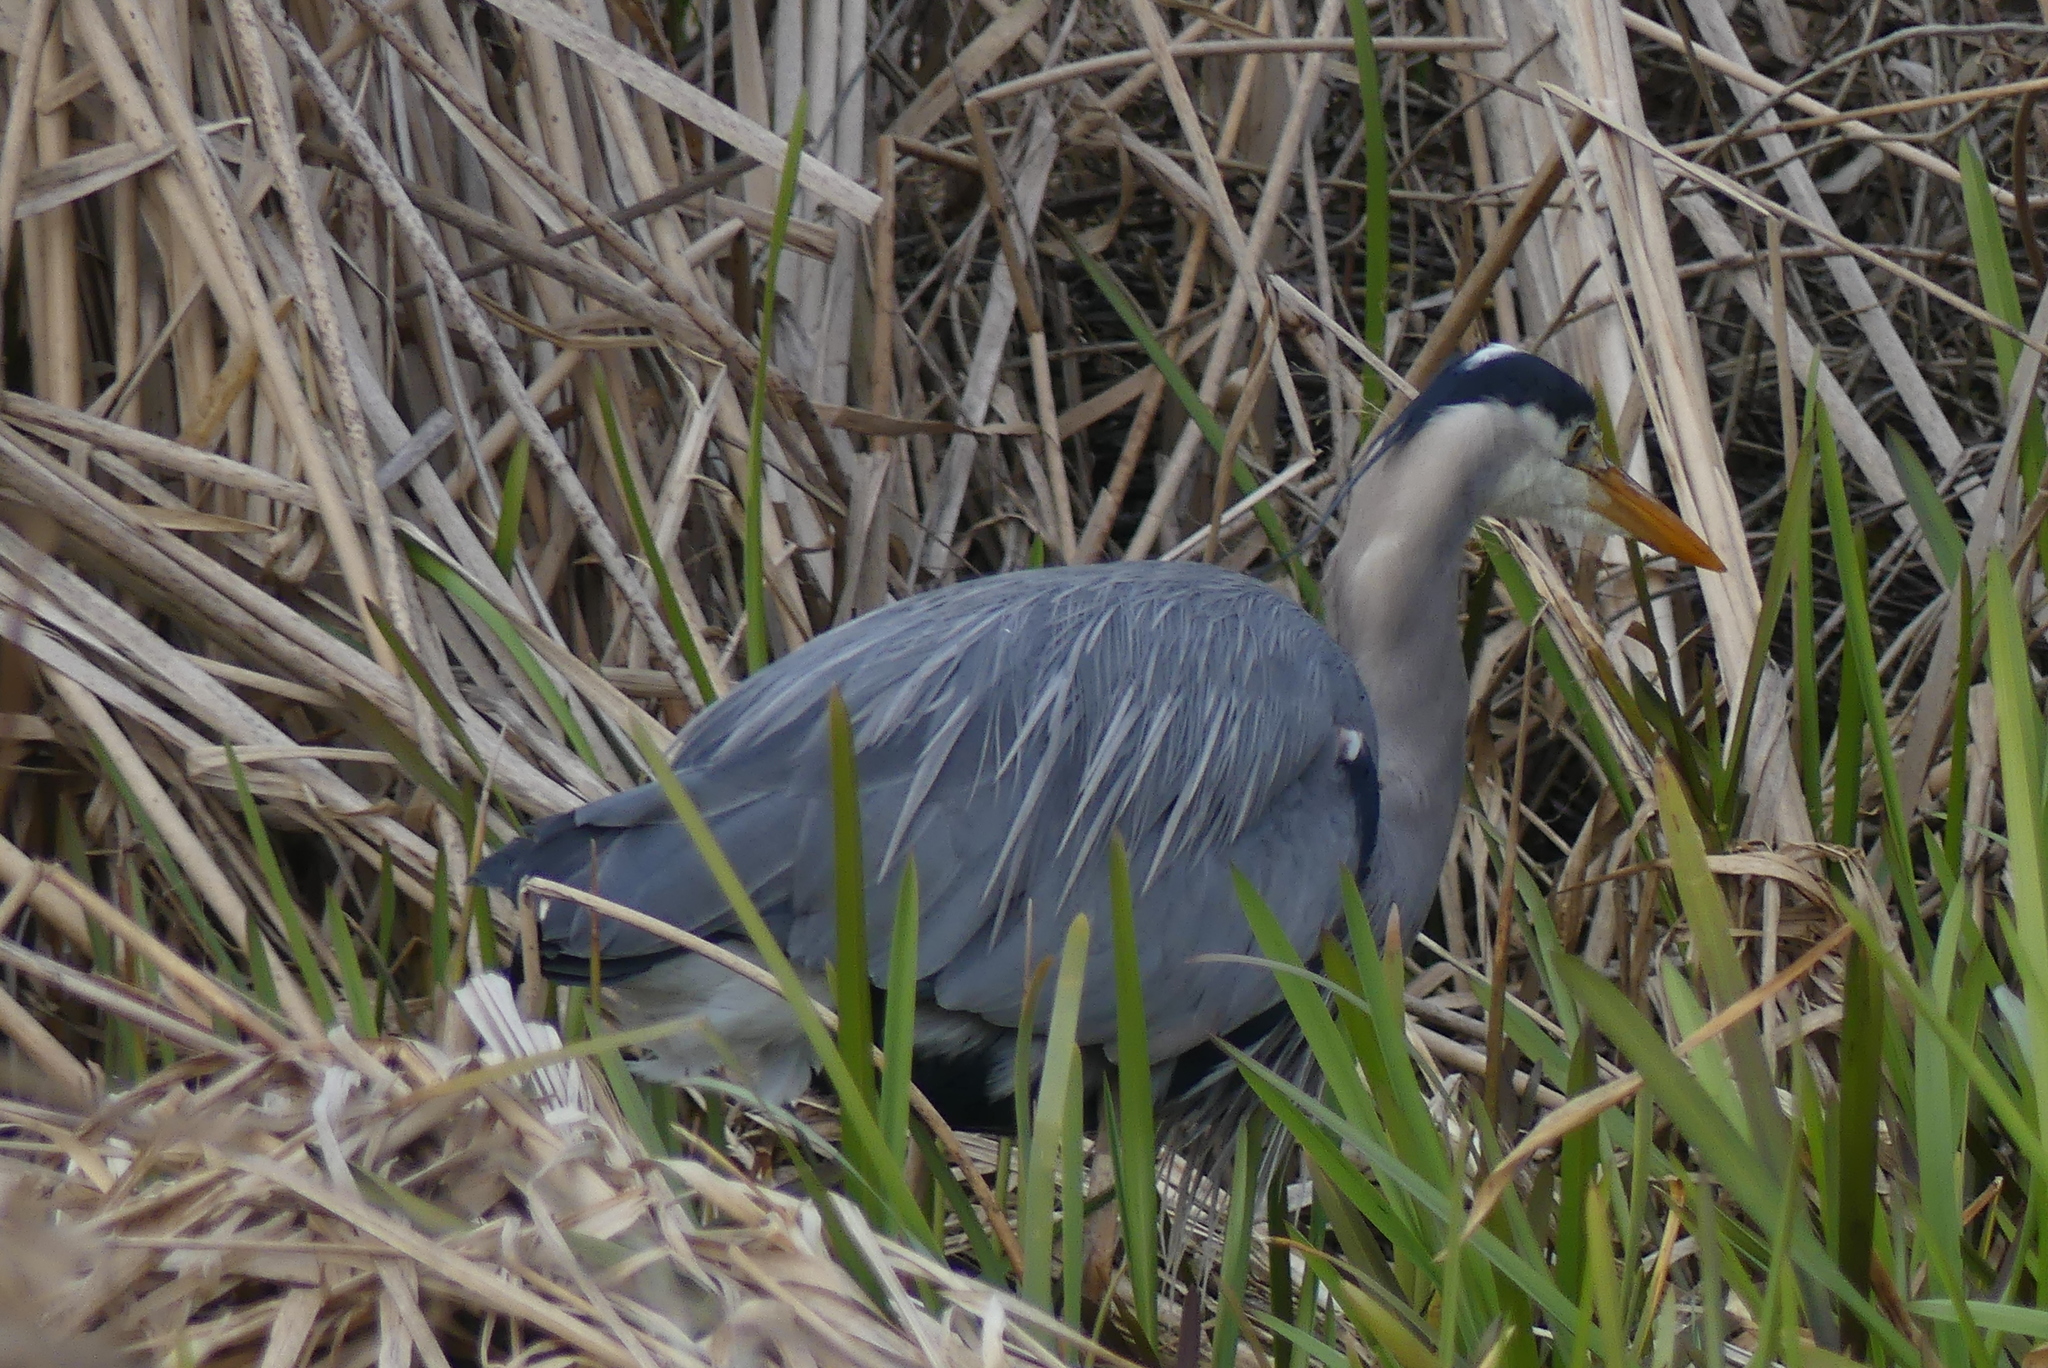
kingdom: Animalia
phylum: Chordata
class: Aves
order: Pelecaniformes
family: Ardeidae
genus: Ardea
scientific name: Ardea herodias
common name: Great blue heron
